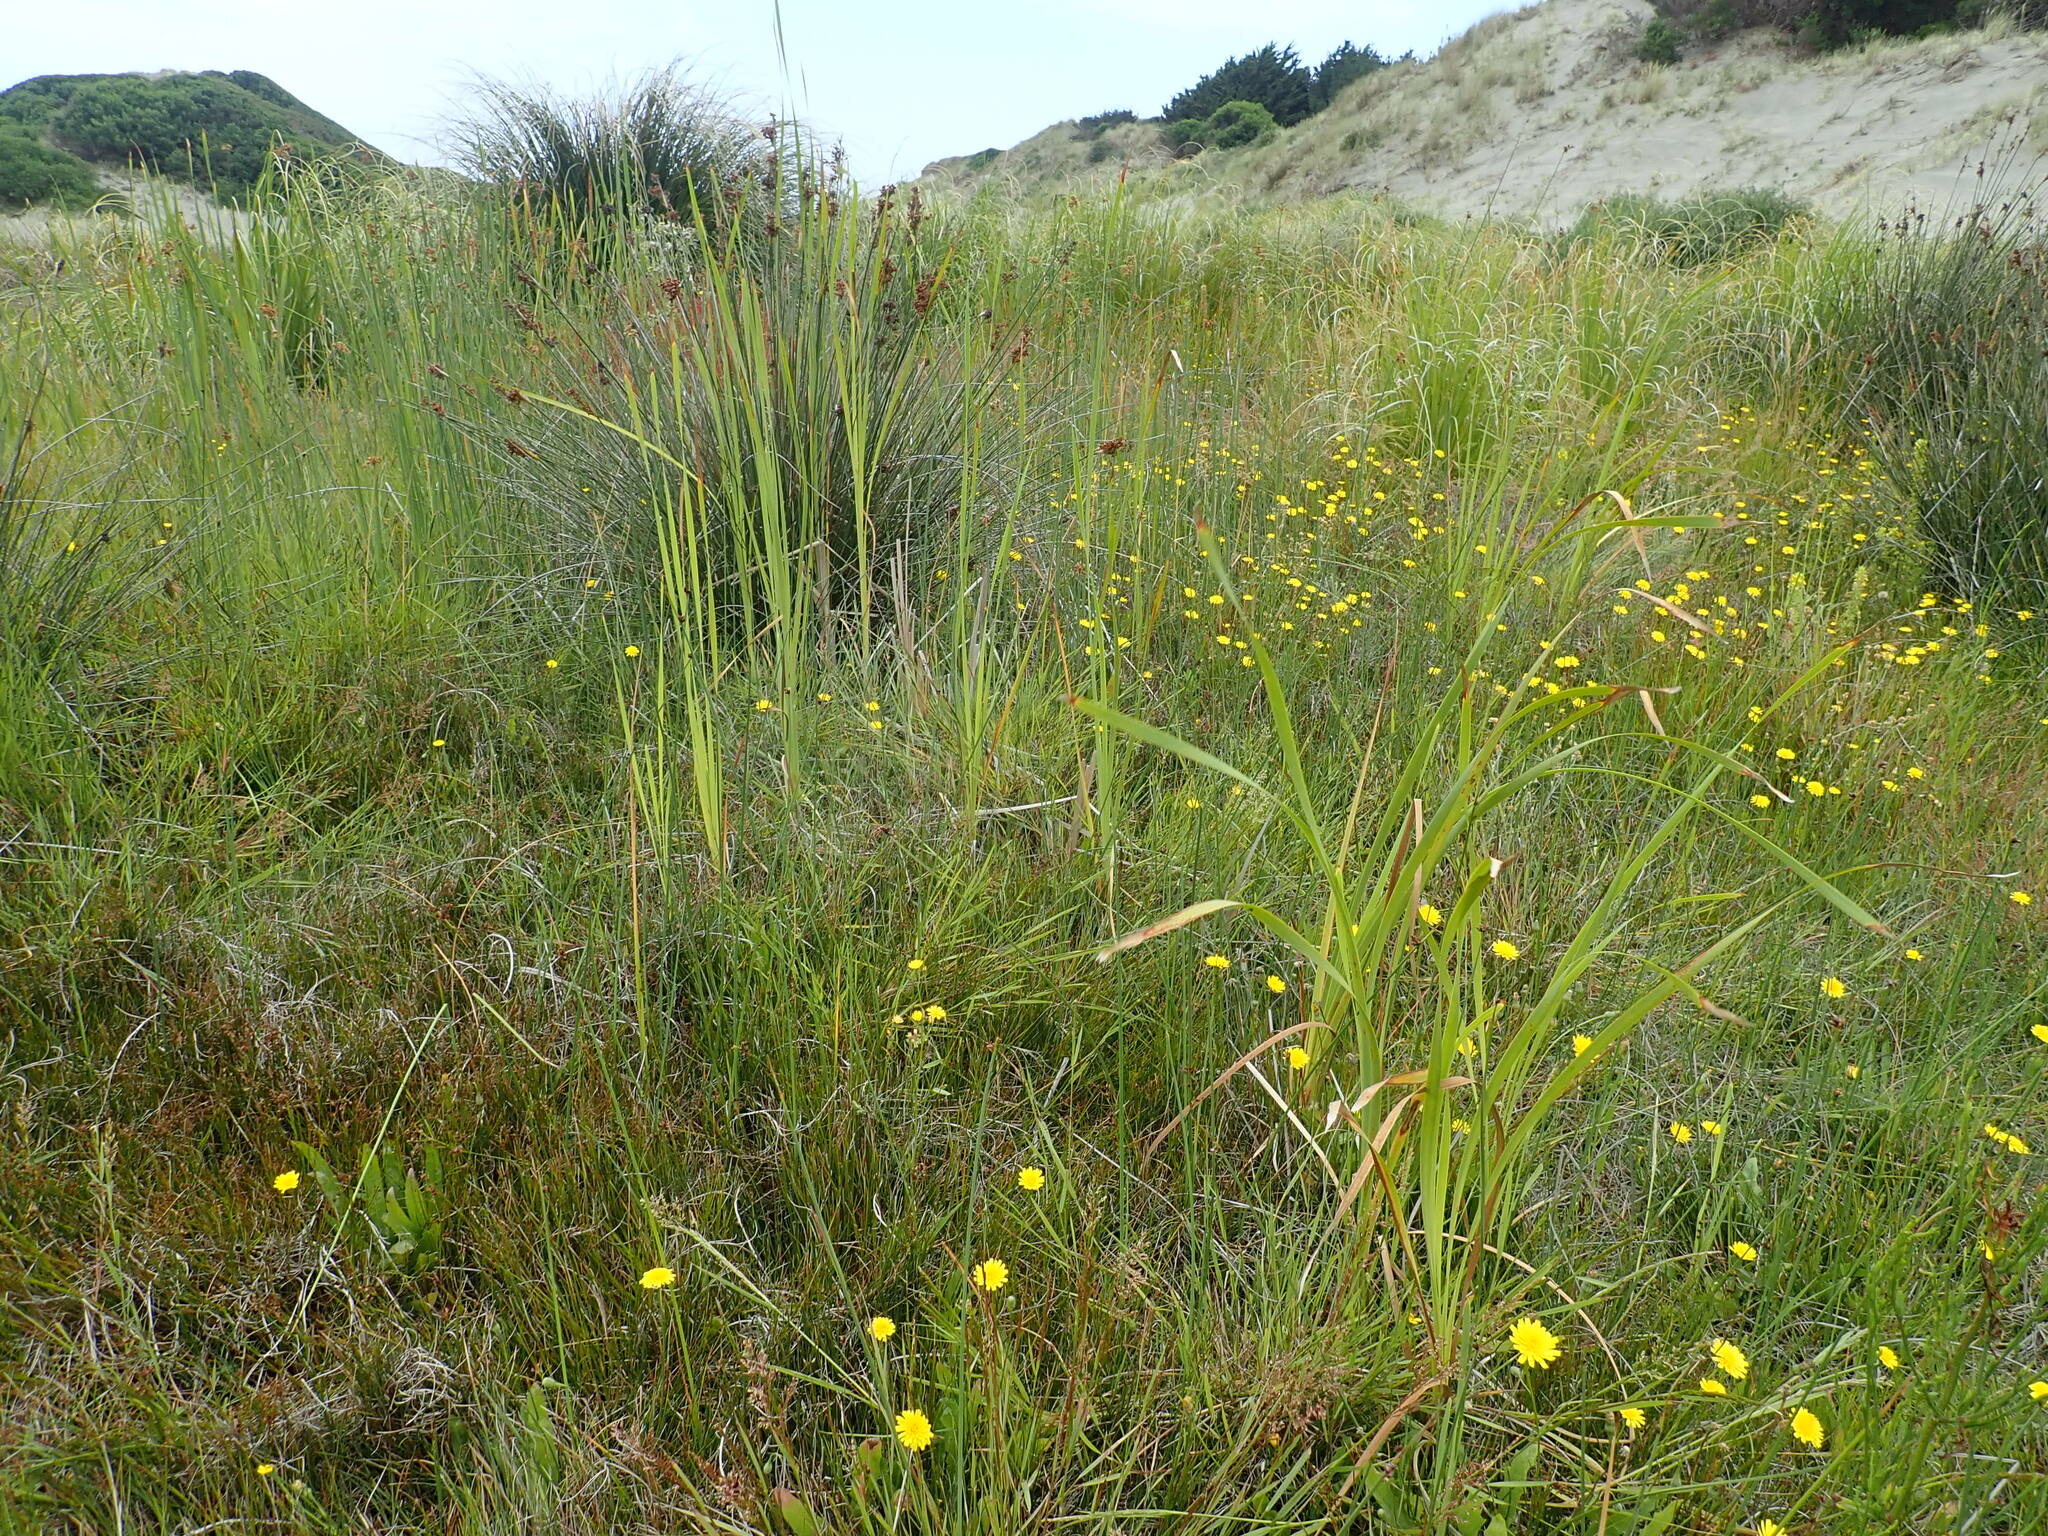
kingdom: Plantae
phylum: Tracheophyta
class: Liliopsida
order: Poales
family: Typhaceae
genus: Typha
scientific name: Typha orientalis
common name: Bullrush
